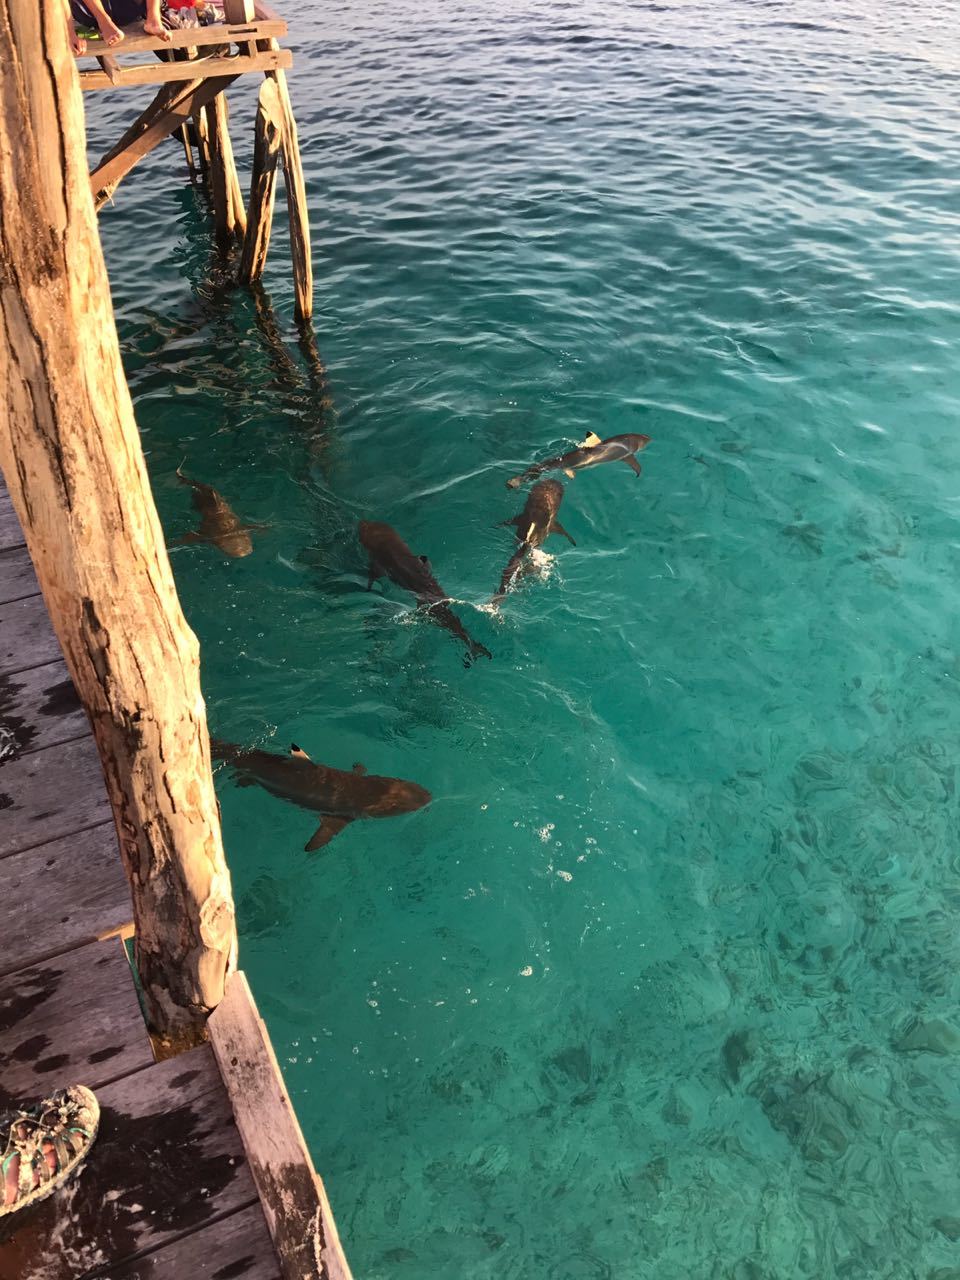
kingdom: Animalia
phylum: Chordata
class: Elasmobranchii
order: Carcharhiniformes
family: Carcharhinidae
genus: Carcharhinus
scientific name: Carcharhinus melanopterus
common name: Blacktip reef shark
